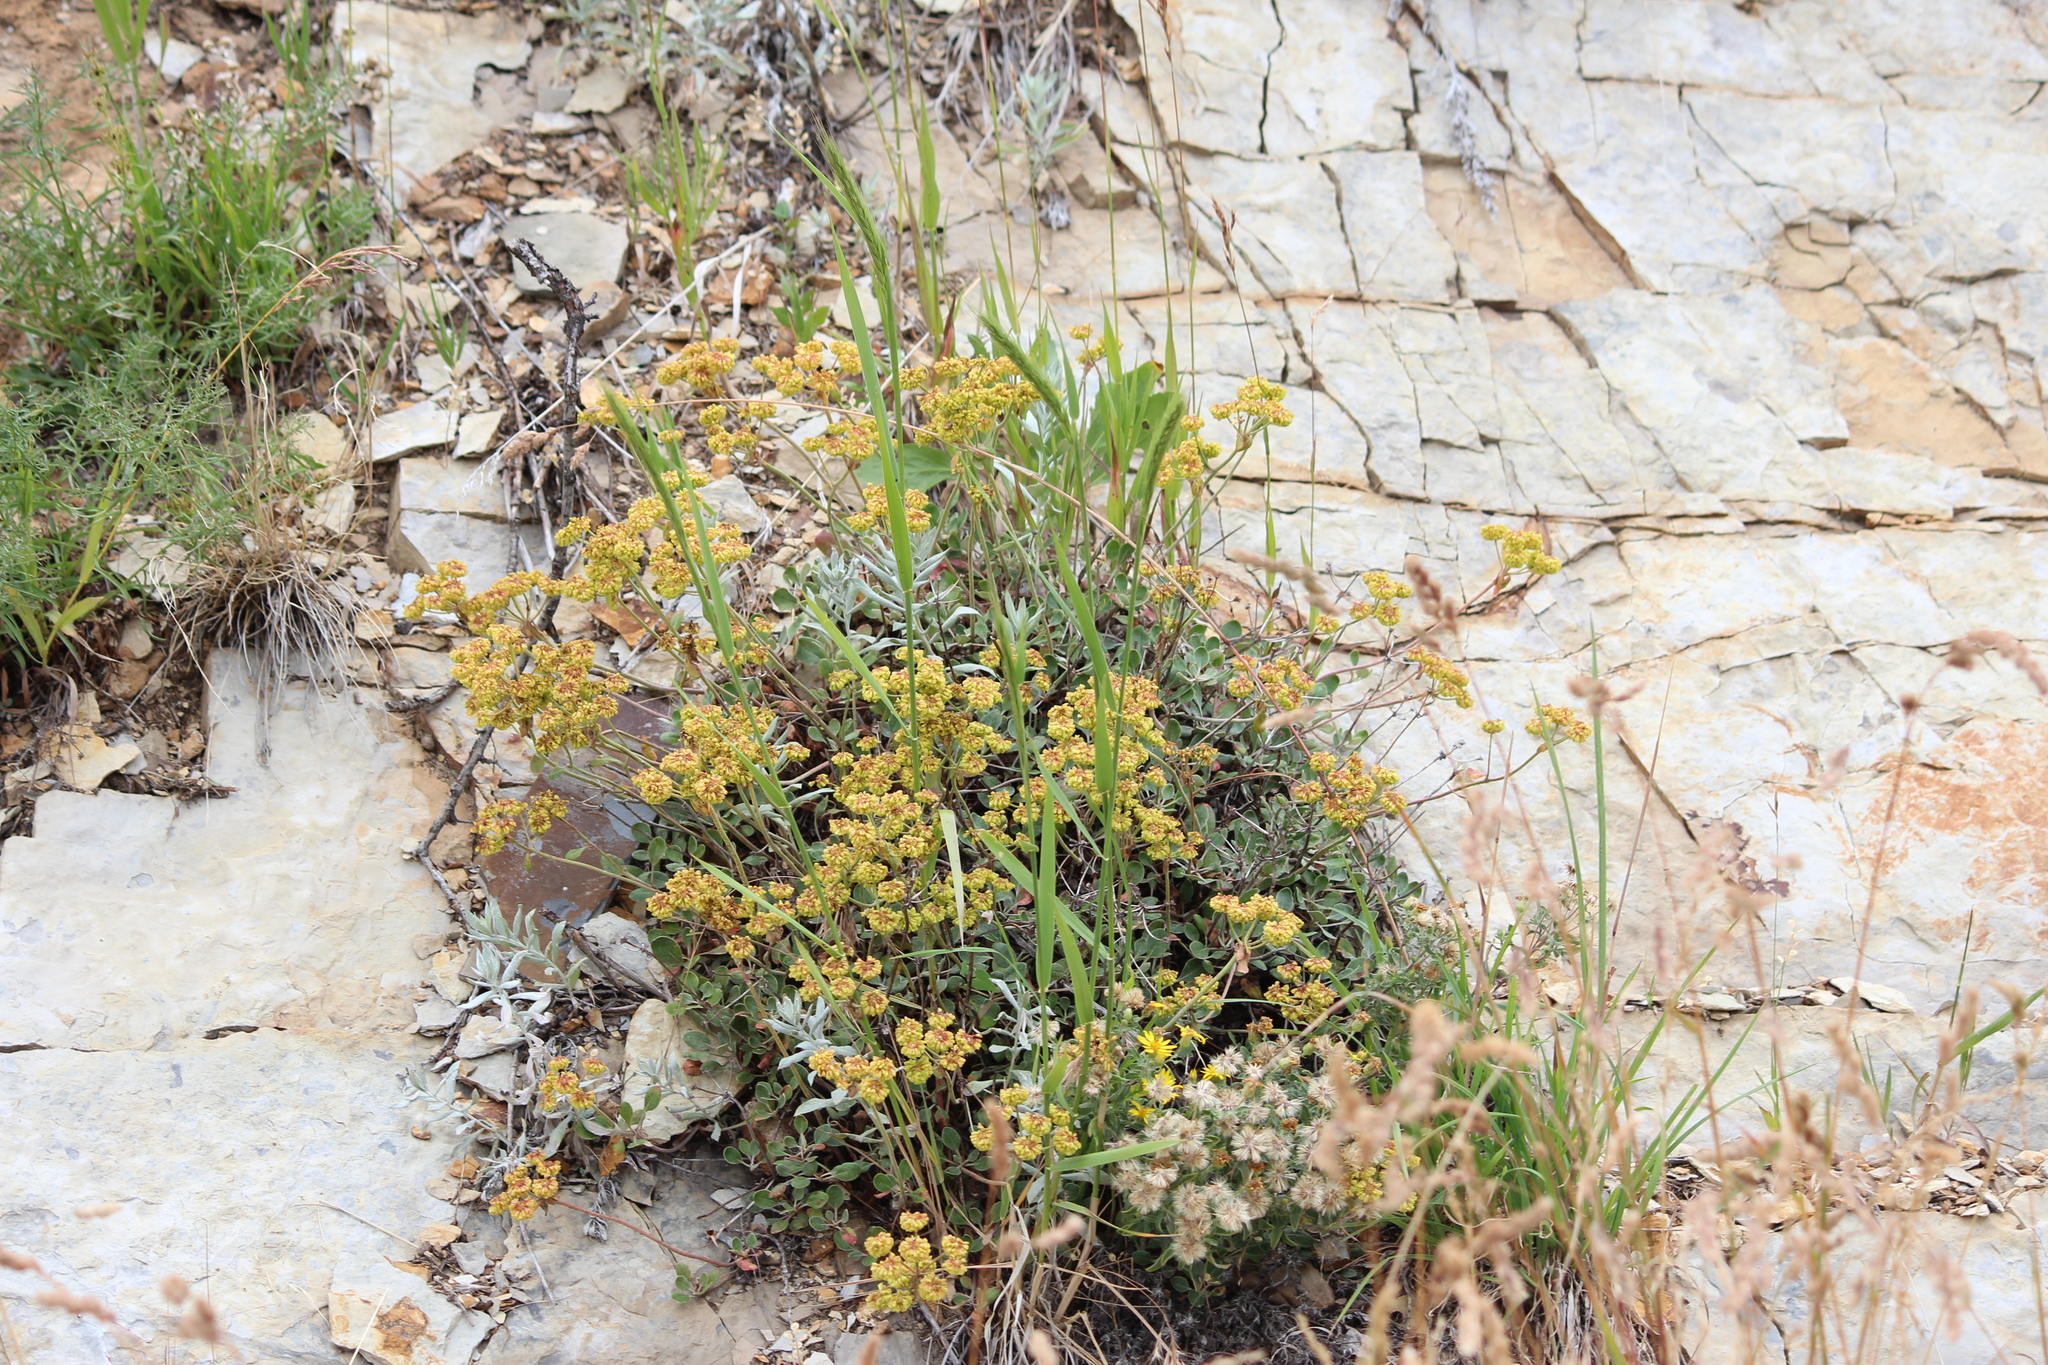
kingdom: Plantae
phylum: Tracheophyta
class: Magnoliopsida
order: Caryophyllales
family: Polygonaceae
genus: Eriogonum
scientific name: Eriogonum umbellatum
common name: Sulfur-buckwheat
